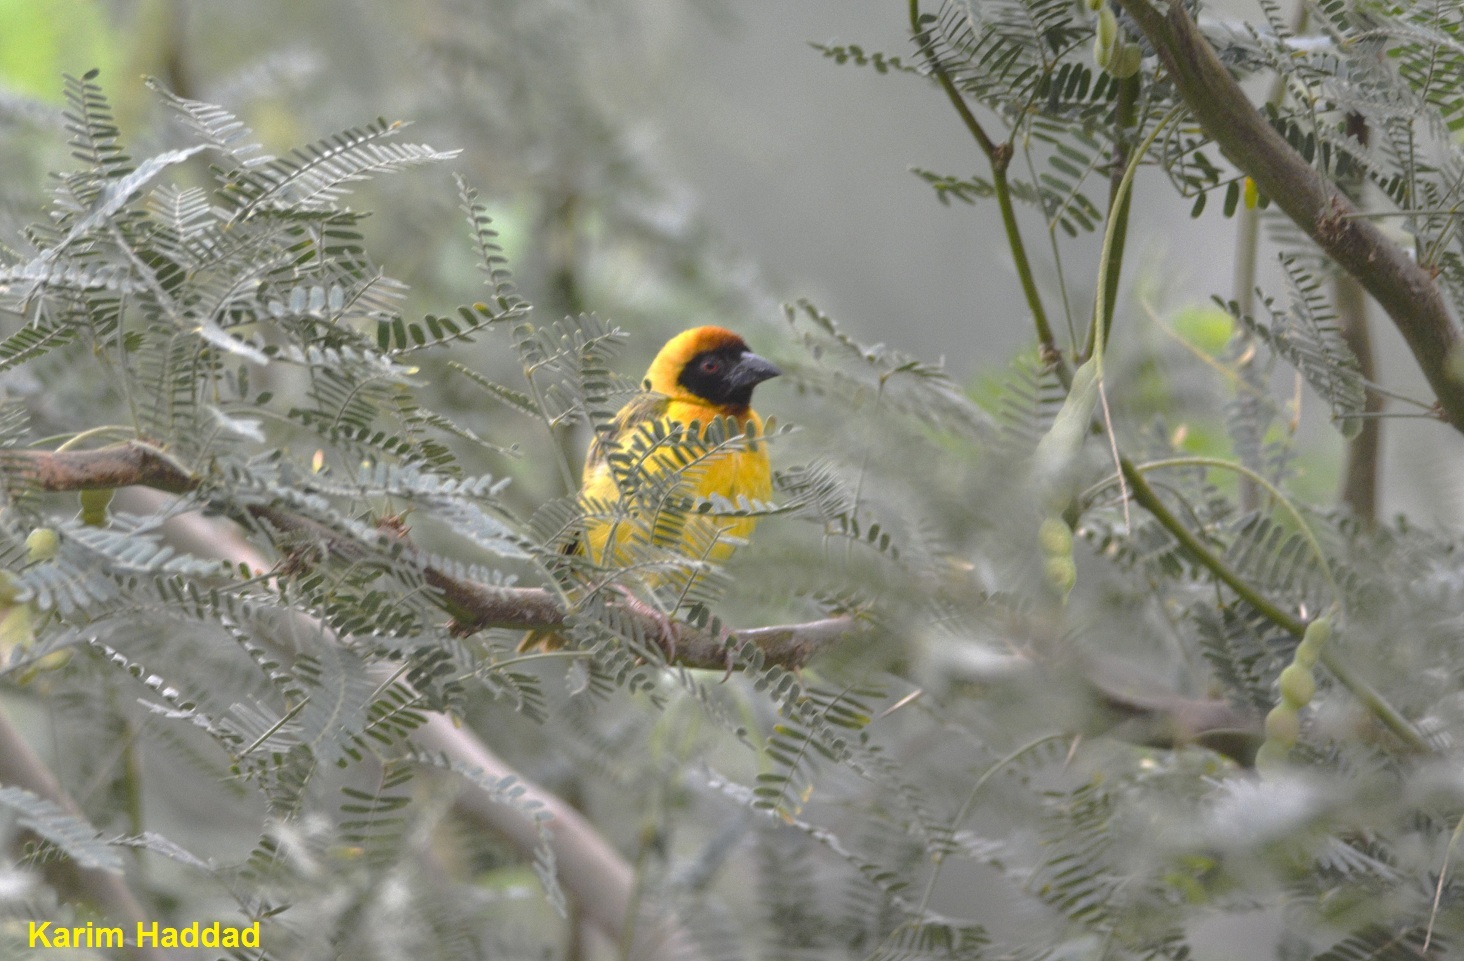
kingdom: Animalia
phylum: Chordata
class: Aves
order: Passeriformes
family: Ploceidae
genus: Ploceus
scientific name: Ploceus vitellinus
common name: Vitelline masked weaver
